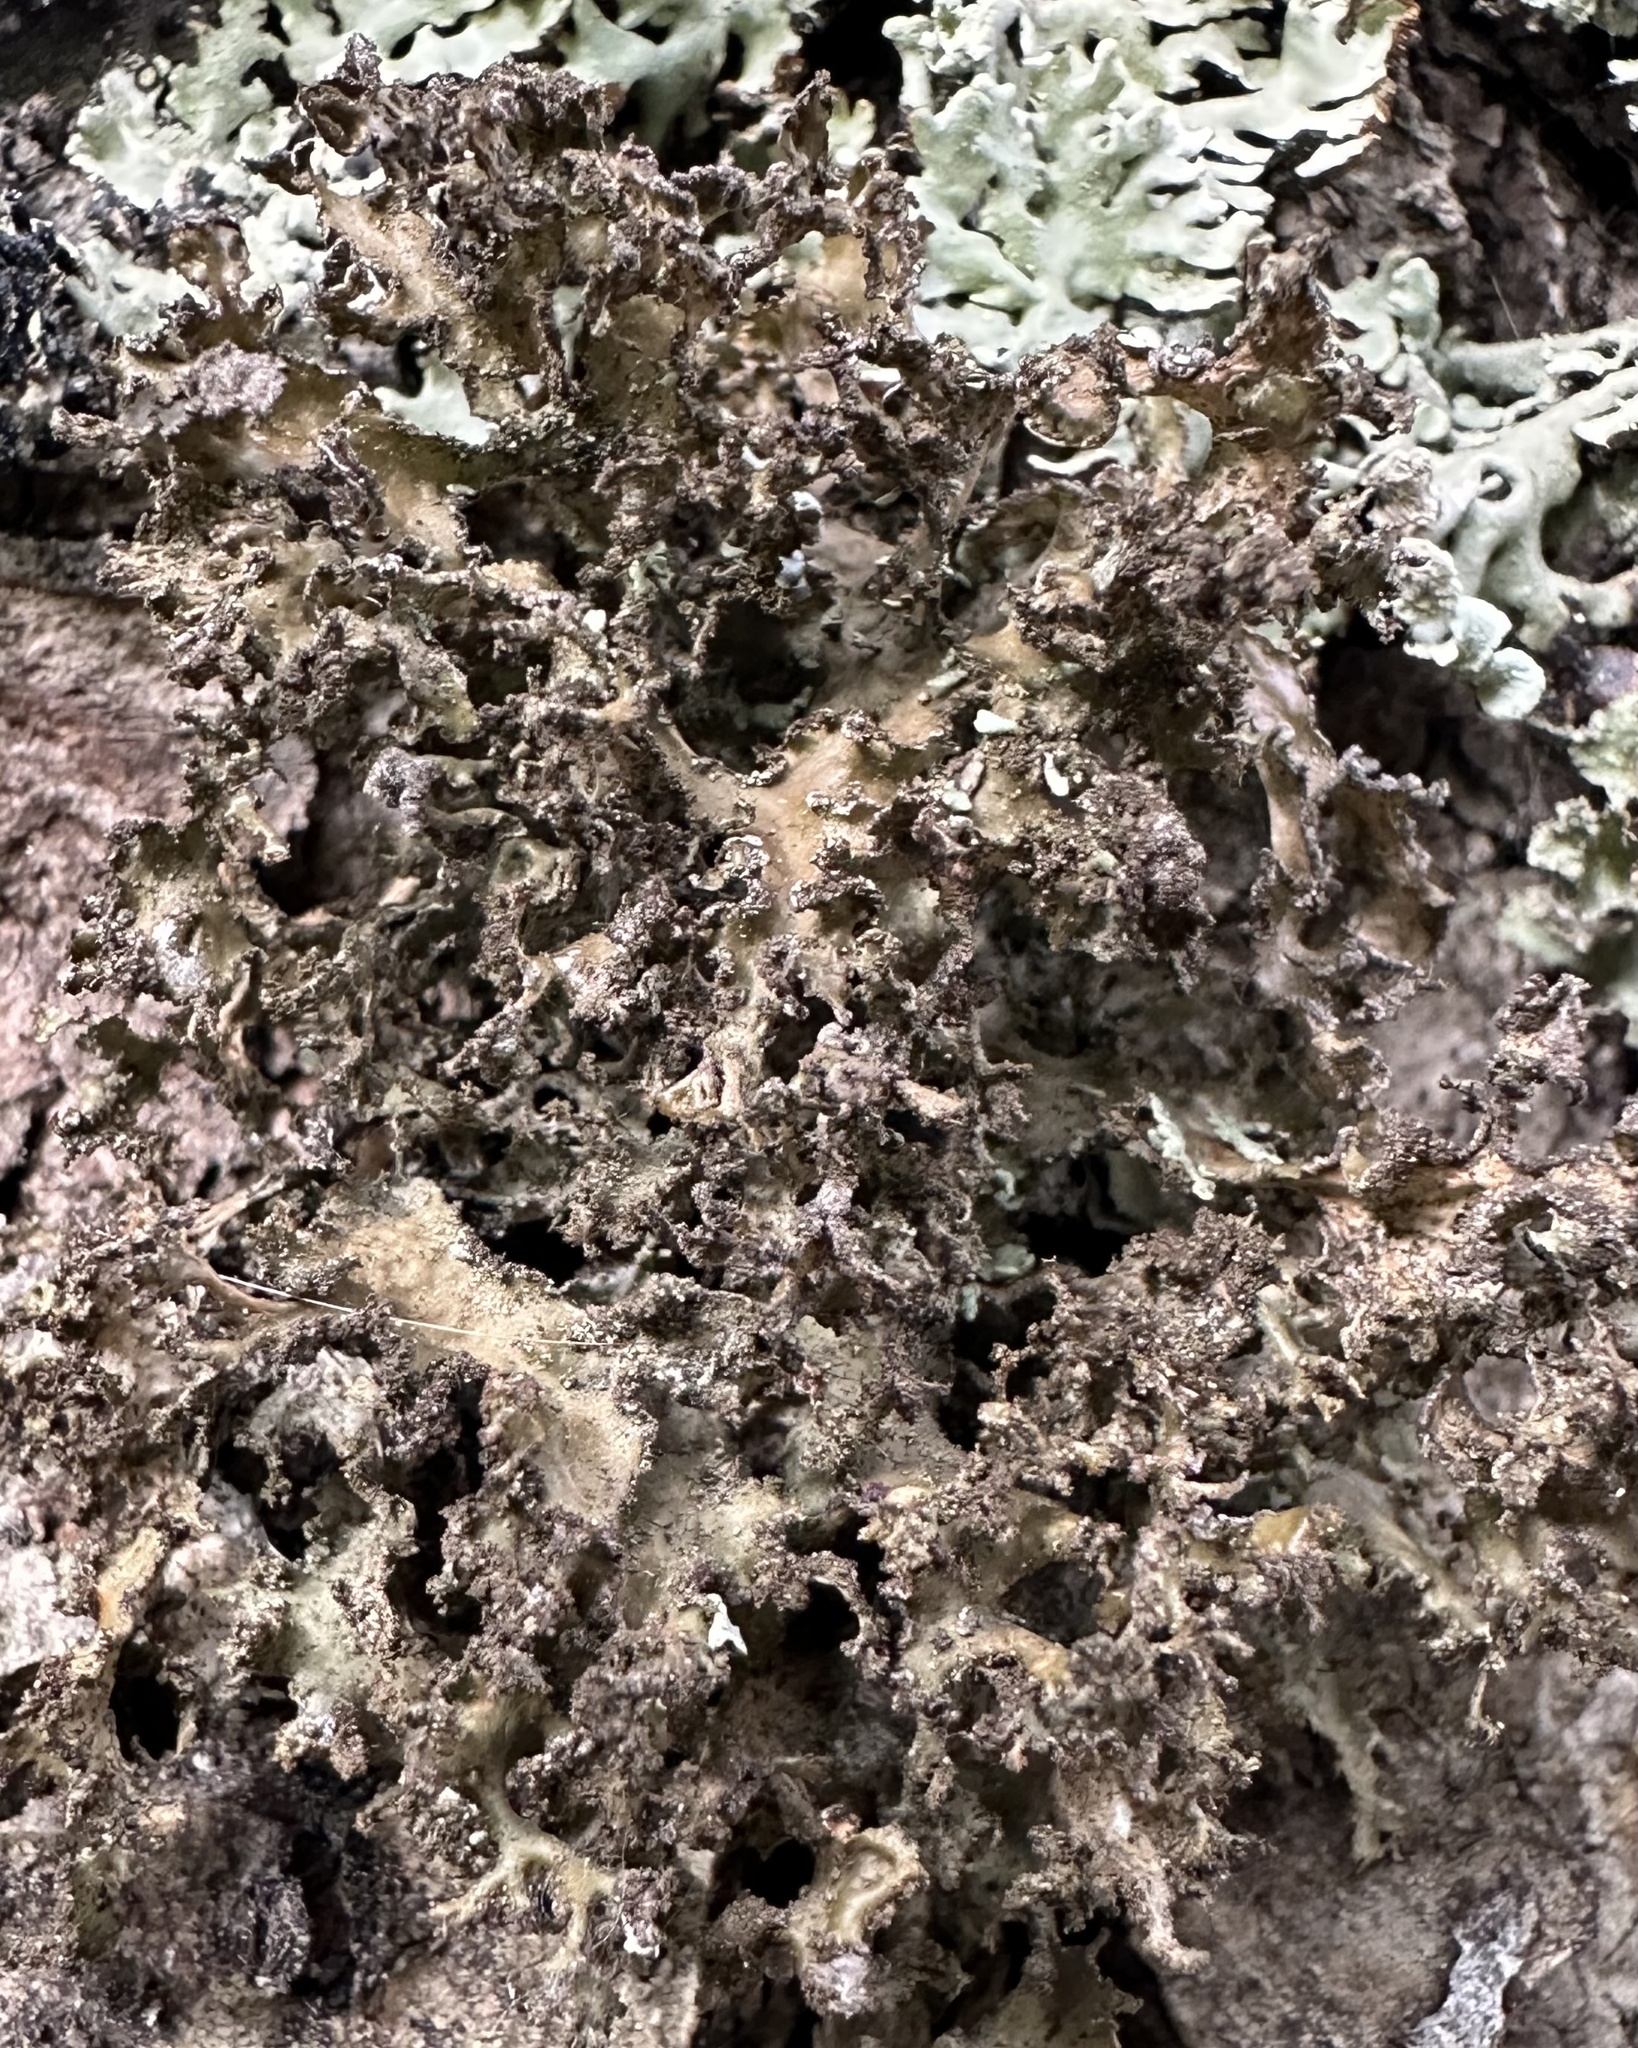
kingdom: Fungi
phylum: Ascomycota
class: Lecanoromycetes
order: Lecanorales
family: Parmeliaceae
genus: Nephromopsis
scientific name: Nephromopsis chlorophylla
